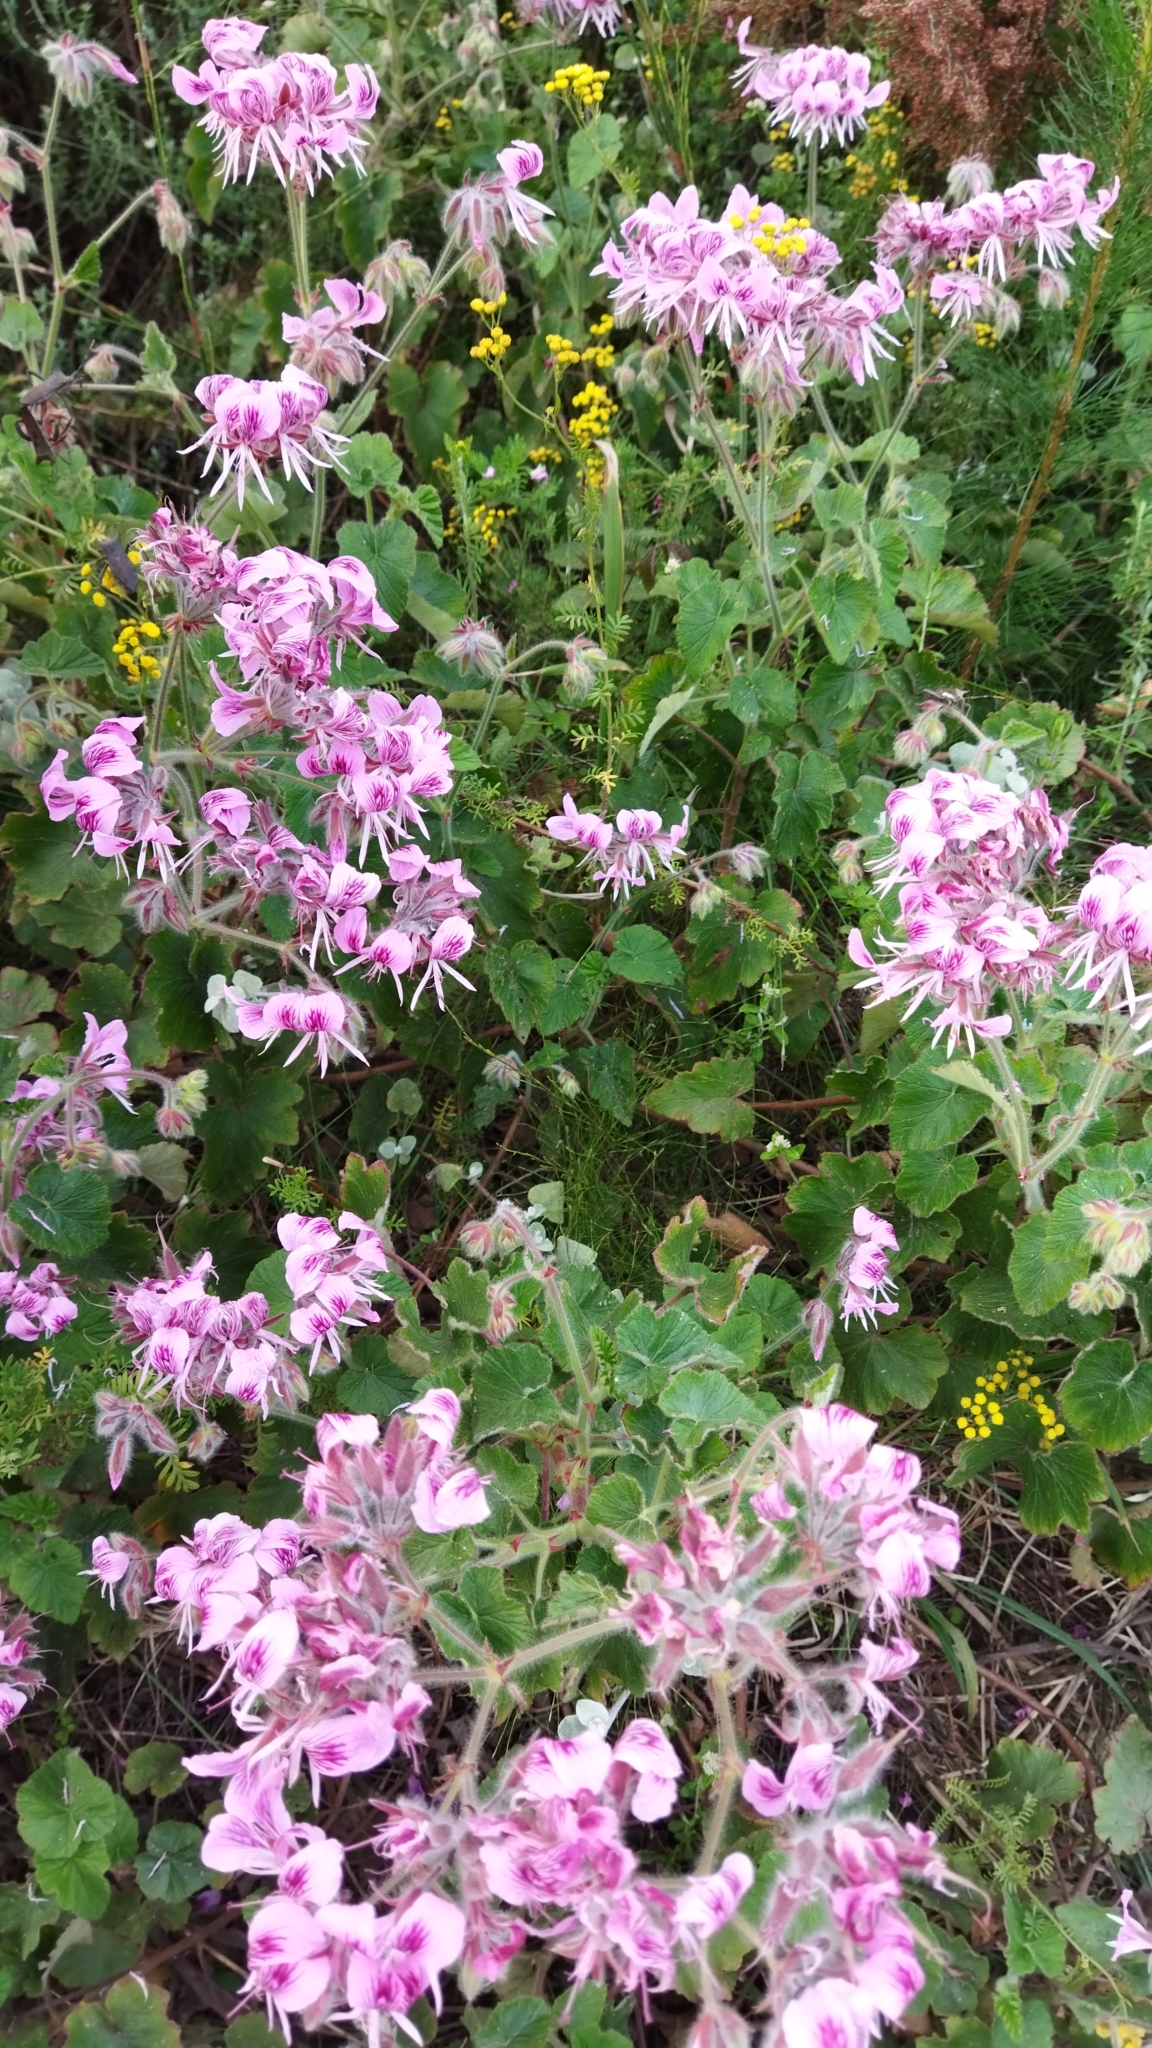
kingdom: Plantae
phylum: Tracheophyta
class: Magnoliopsida
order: Geraniales
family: Geraniaceae
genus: Pelargonium
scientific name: Pelargonium cordifolium
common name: Heart-leaf pelargonium
